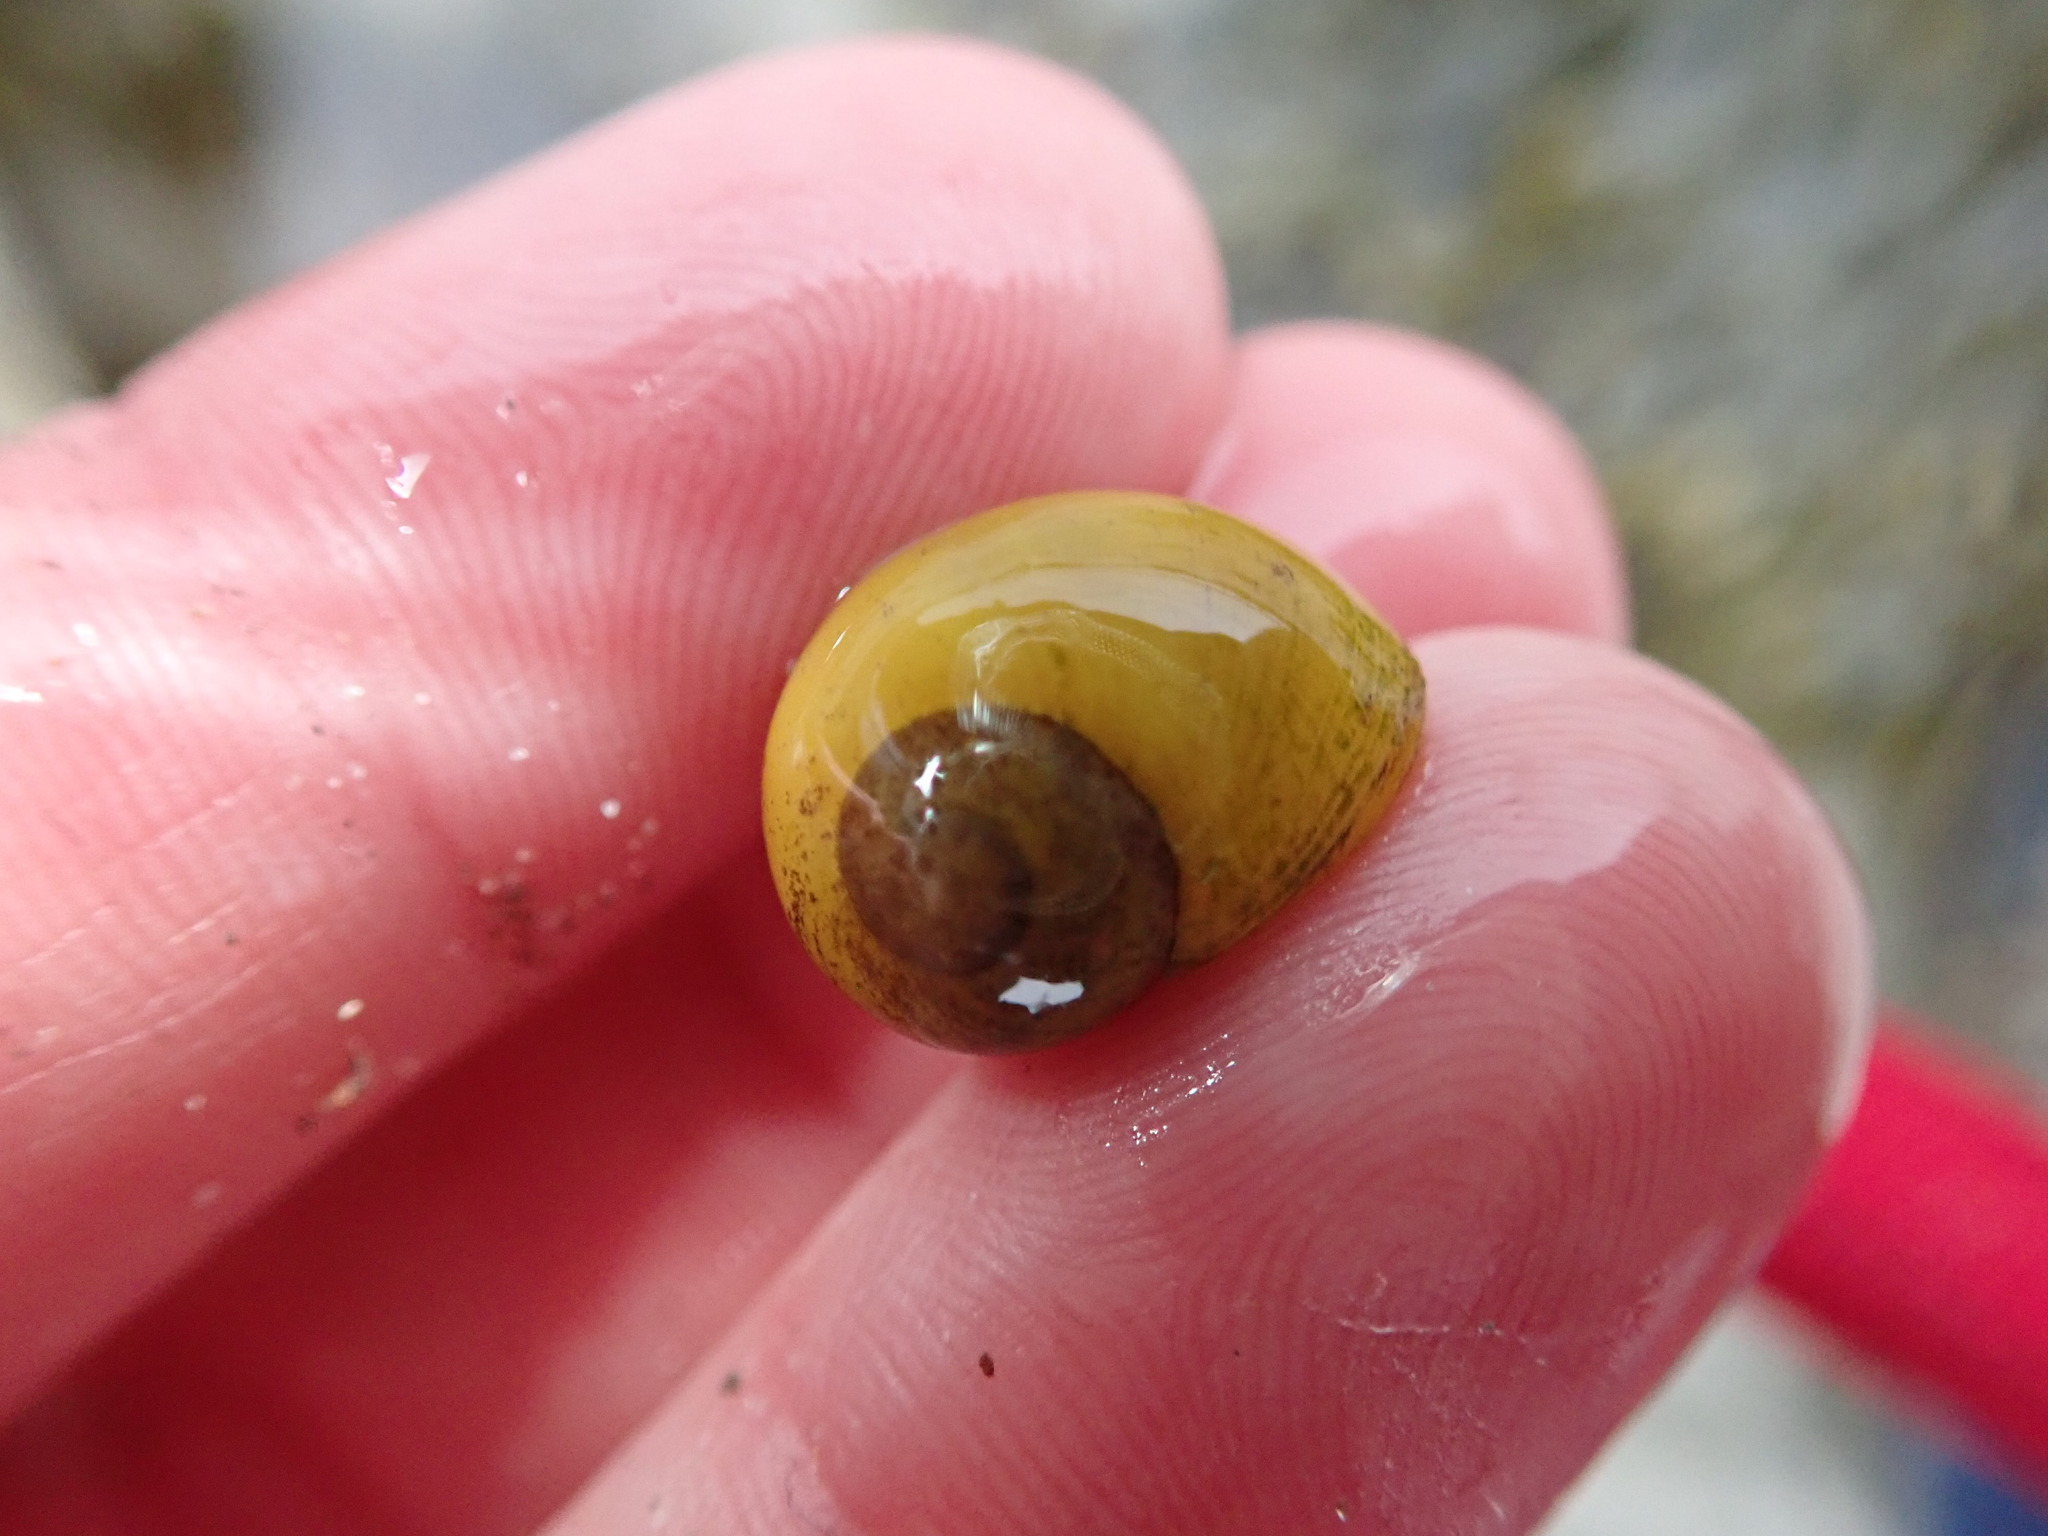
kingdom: Animalia
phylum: Mollusca
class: Gastropoda
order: Littorinimorpha
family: Littorinidae
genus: Littorina
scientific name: Littorina obtusata
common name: Flat periwinkle
